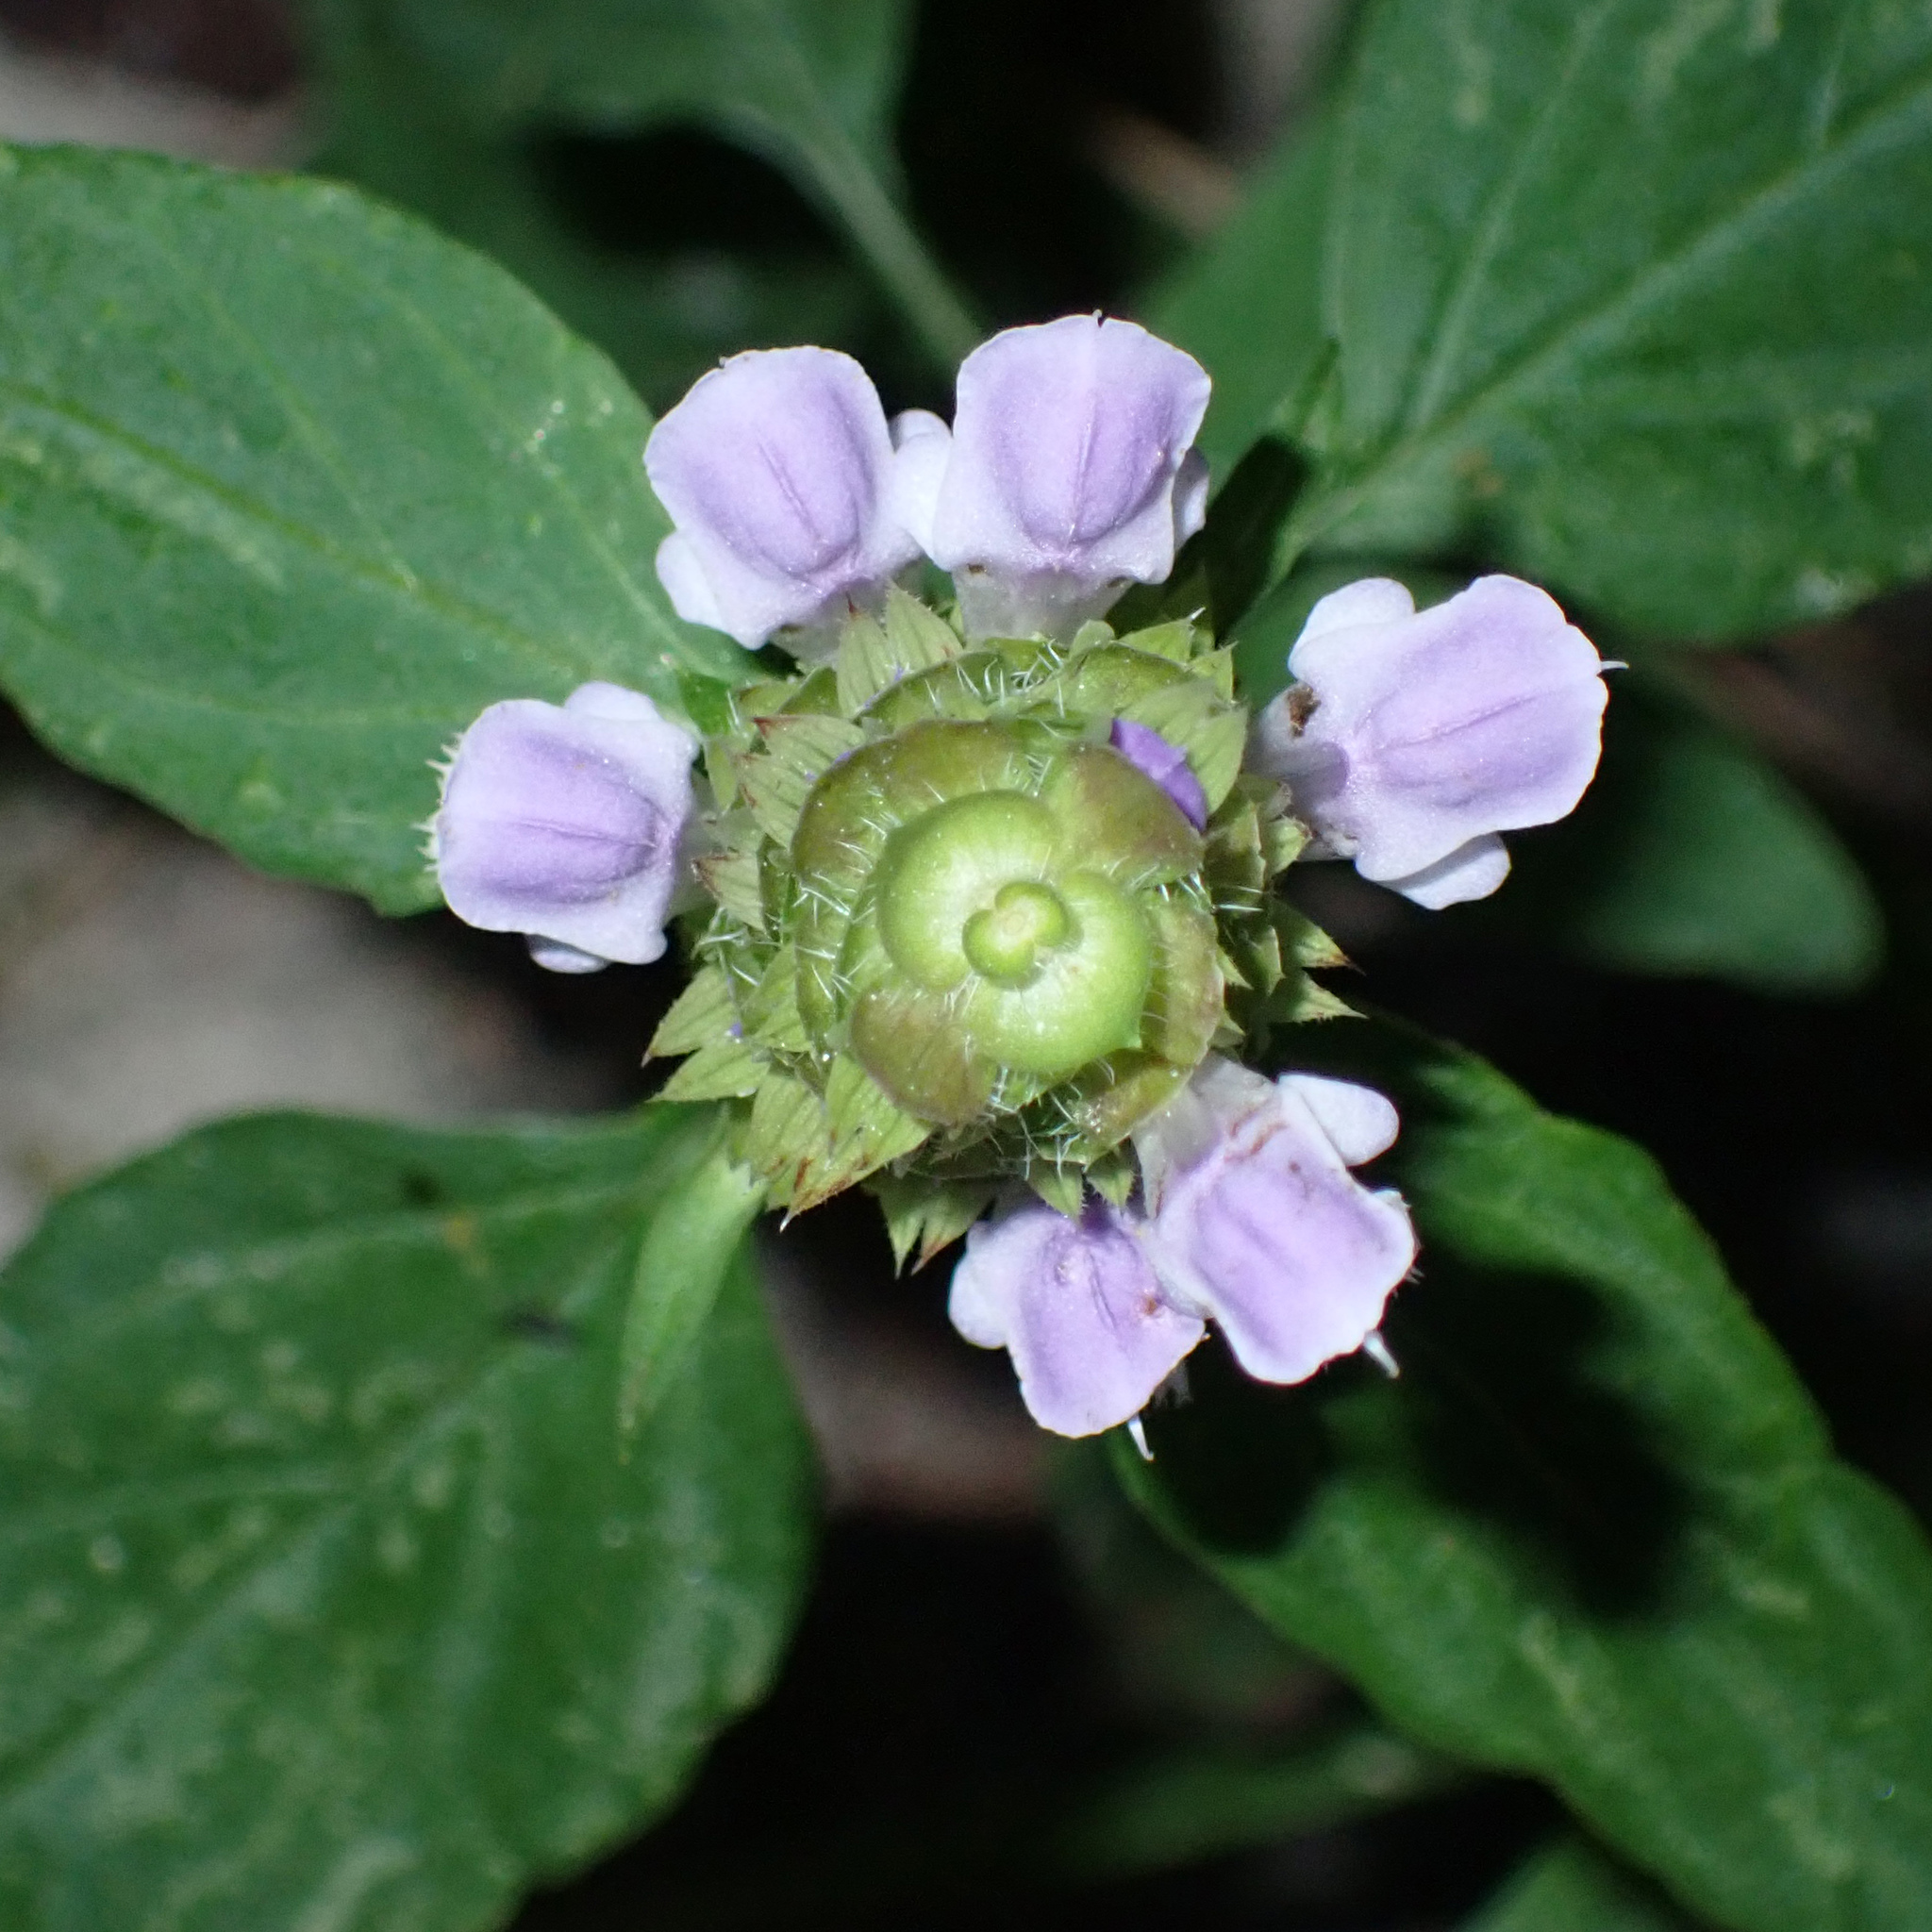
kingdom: Plantae
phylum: Tracheophyta
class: Magnoliopsida
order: Lamiales
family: Lamiaceae
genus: Prunella
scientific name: Prunella vulgaris
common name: Heal-all
